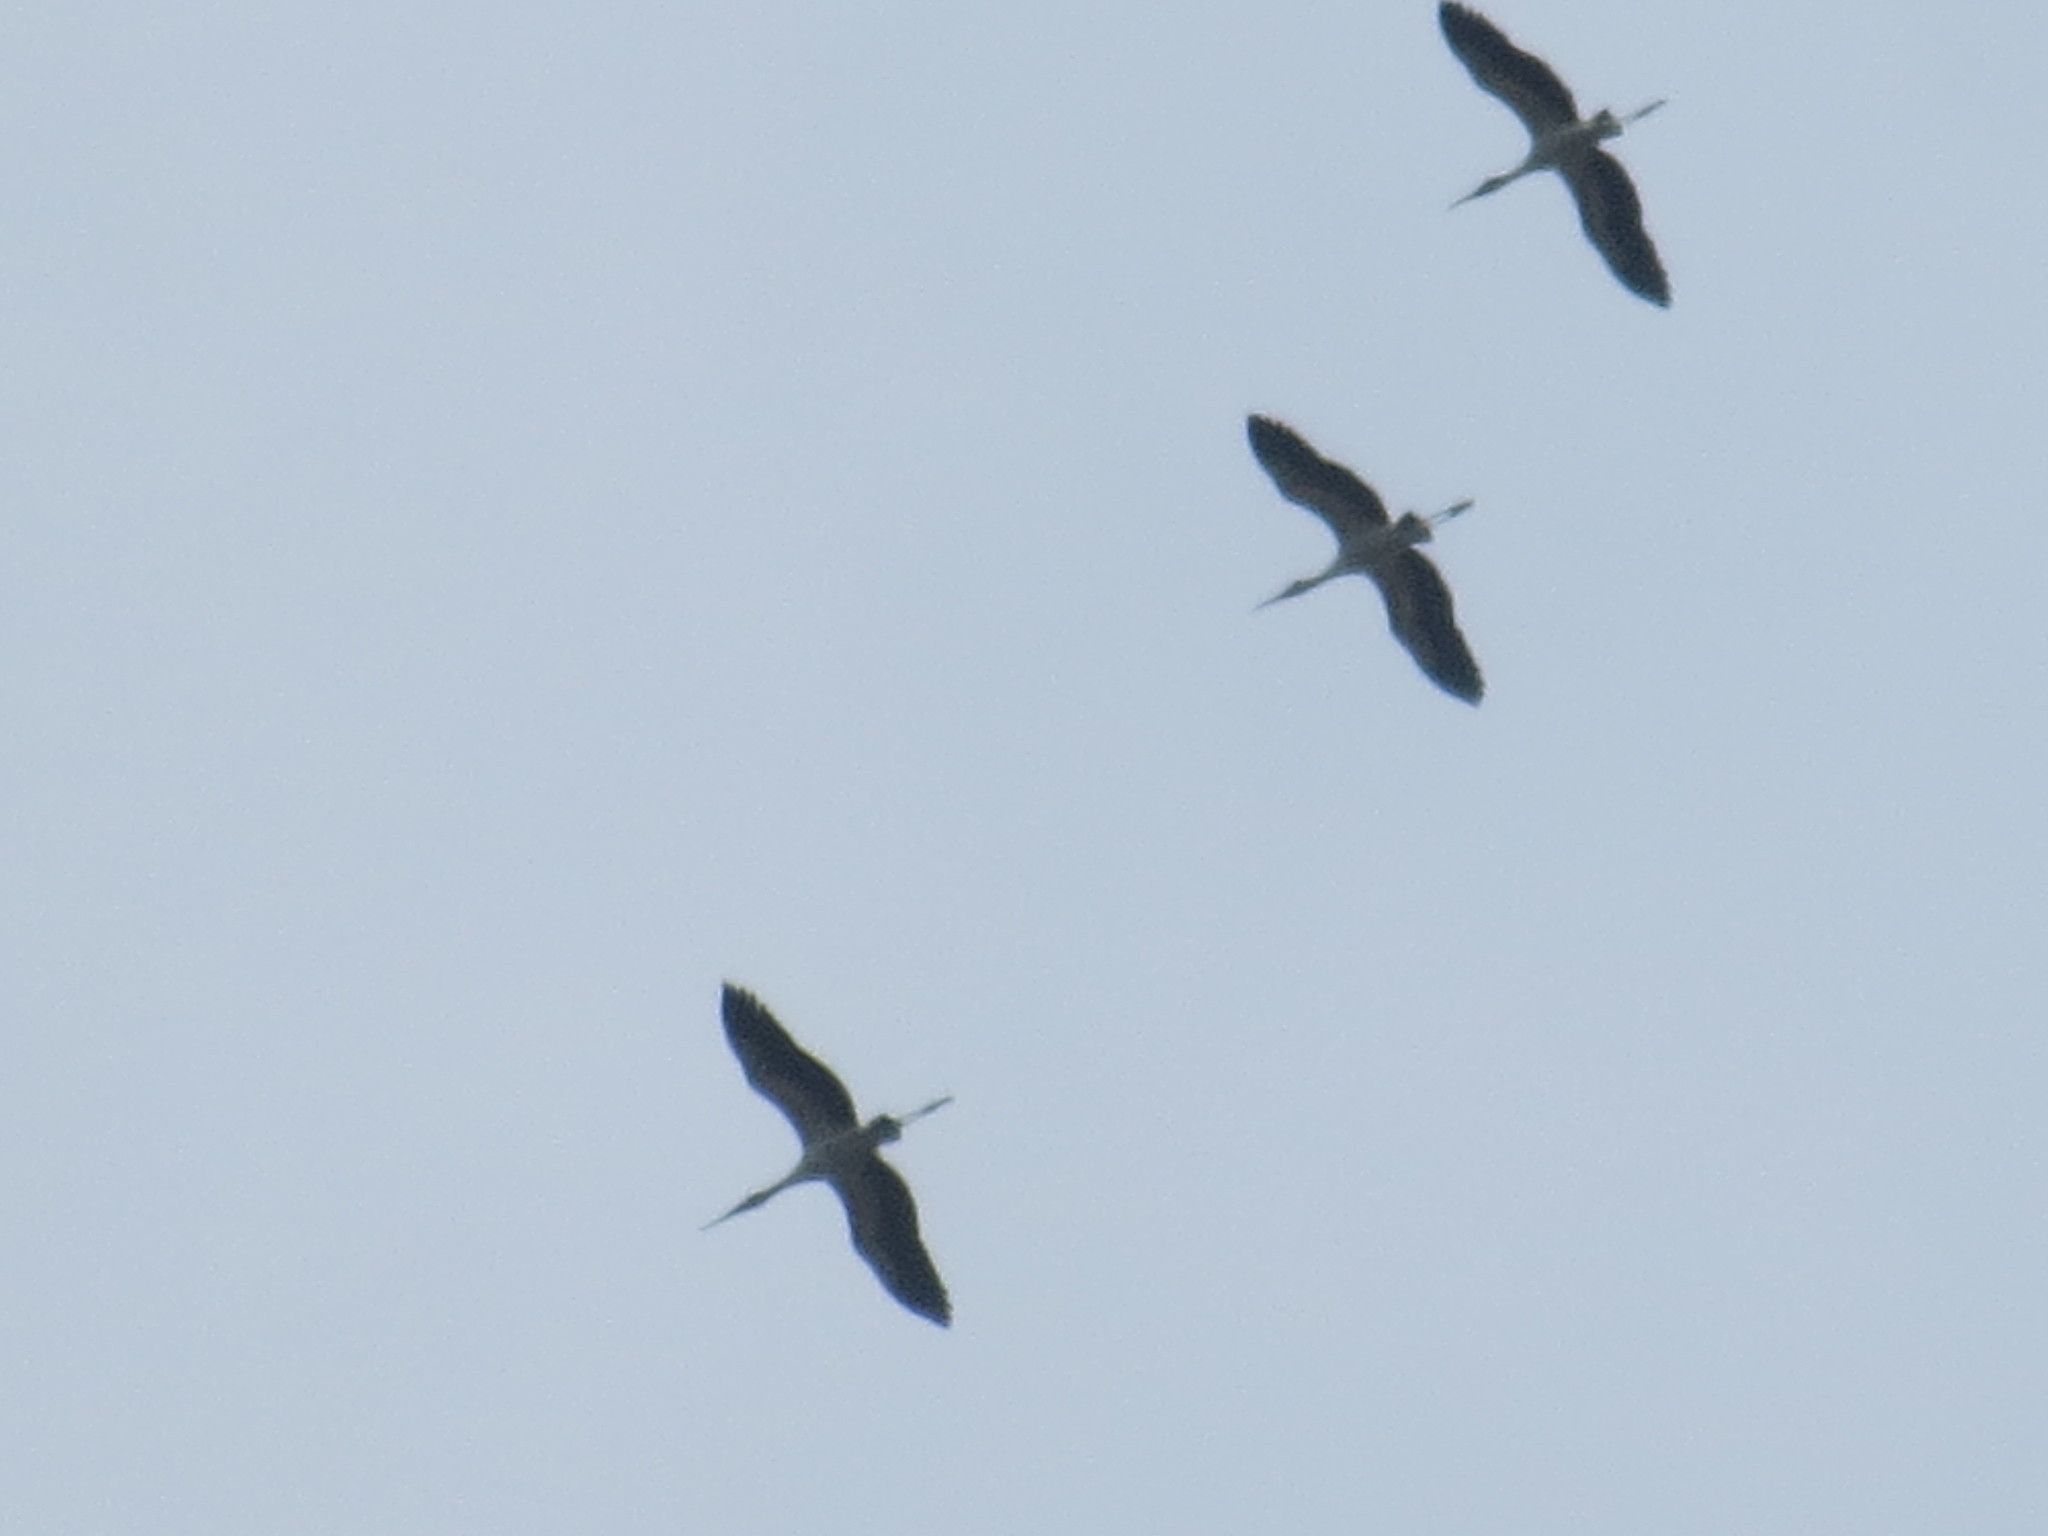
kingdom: Animalia
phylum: Chordata
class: Aves
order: Ciconiiformes
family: Ciconiidae
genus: Mycteria
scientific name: Mycteria americana
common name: Wood stork
